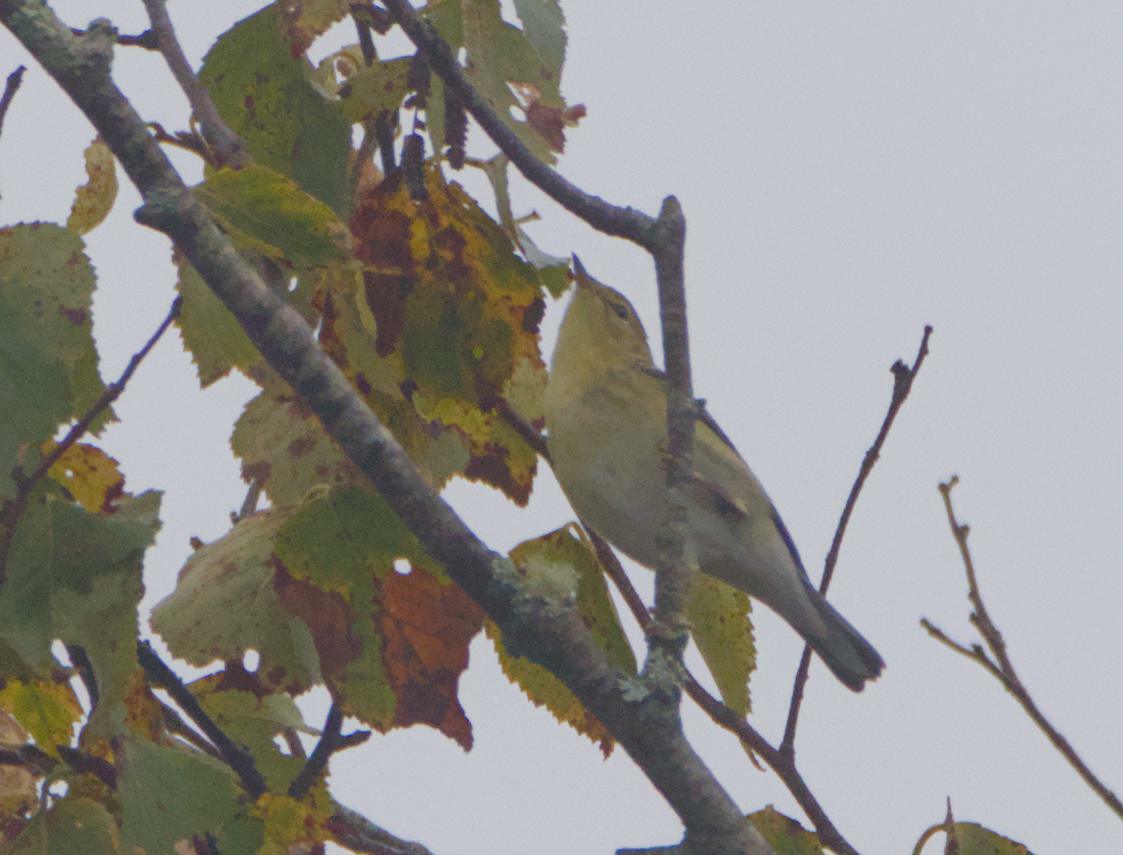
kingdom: Animalia
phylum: Chordata
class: Aves
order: Passeriformes
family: Parulidae
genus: Setophaga
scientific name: Setophaga striata
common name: Blackpoll warbler
